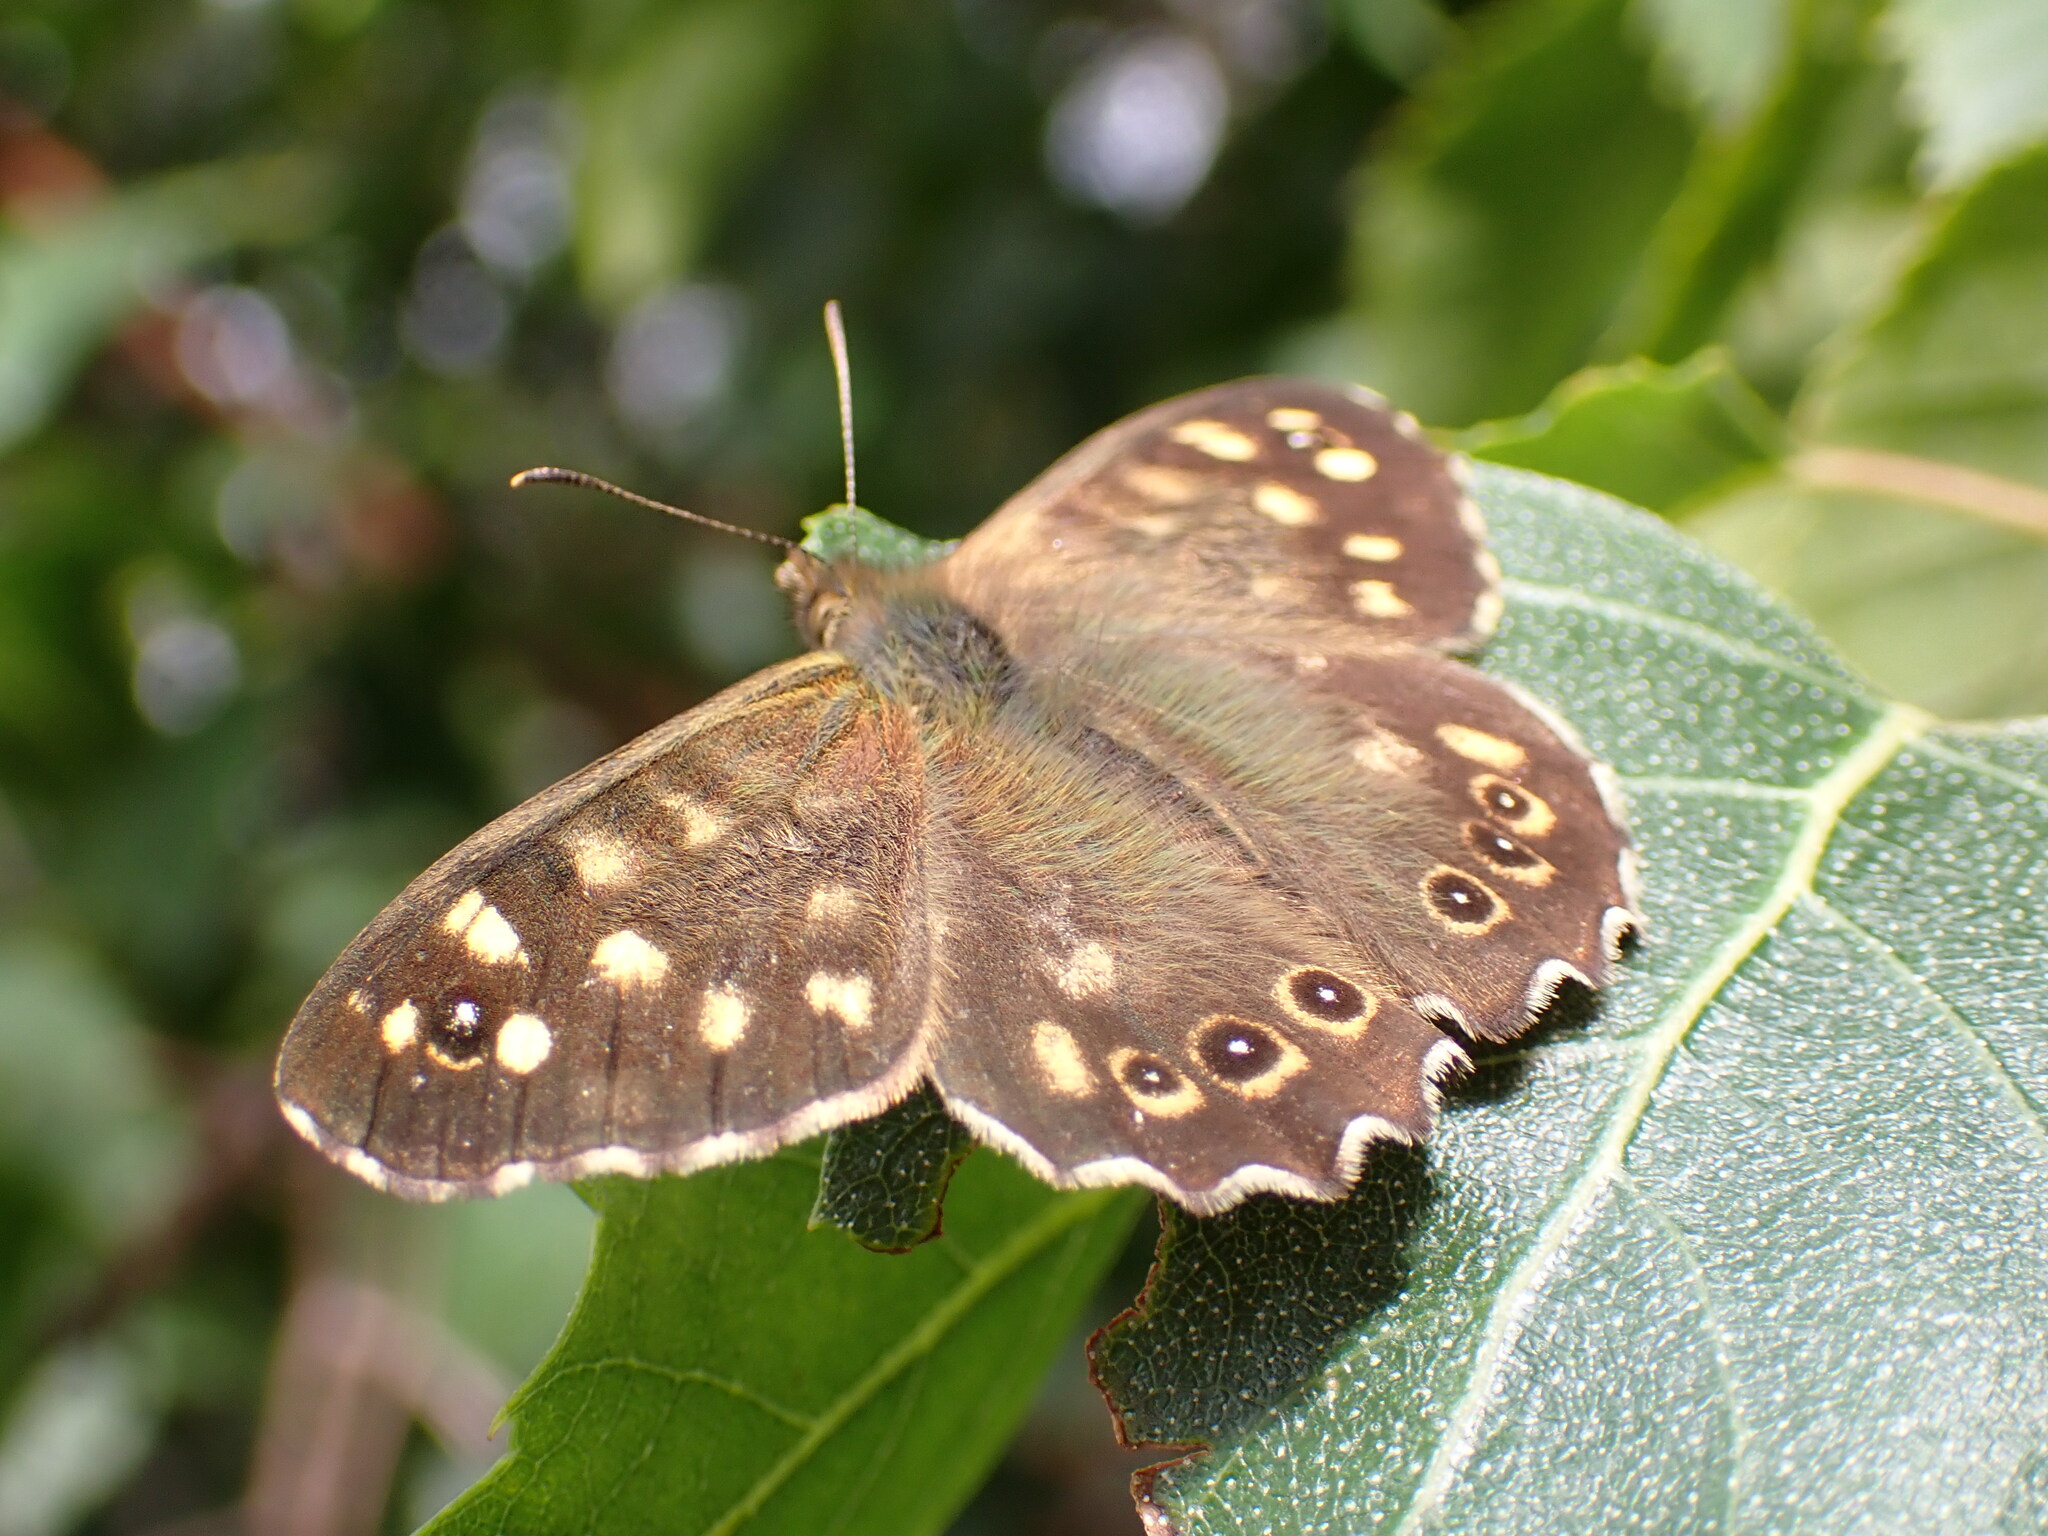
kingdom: Animalia
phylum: Arthropoda
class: Insecta
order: Lepidoptera
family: Nymphalidae
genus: Pararge
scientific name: Pararge aegeria
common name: Speckled wood
